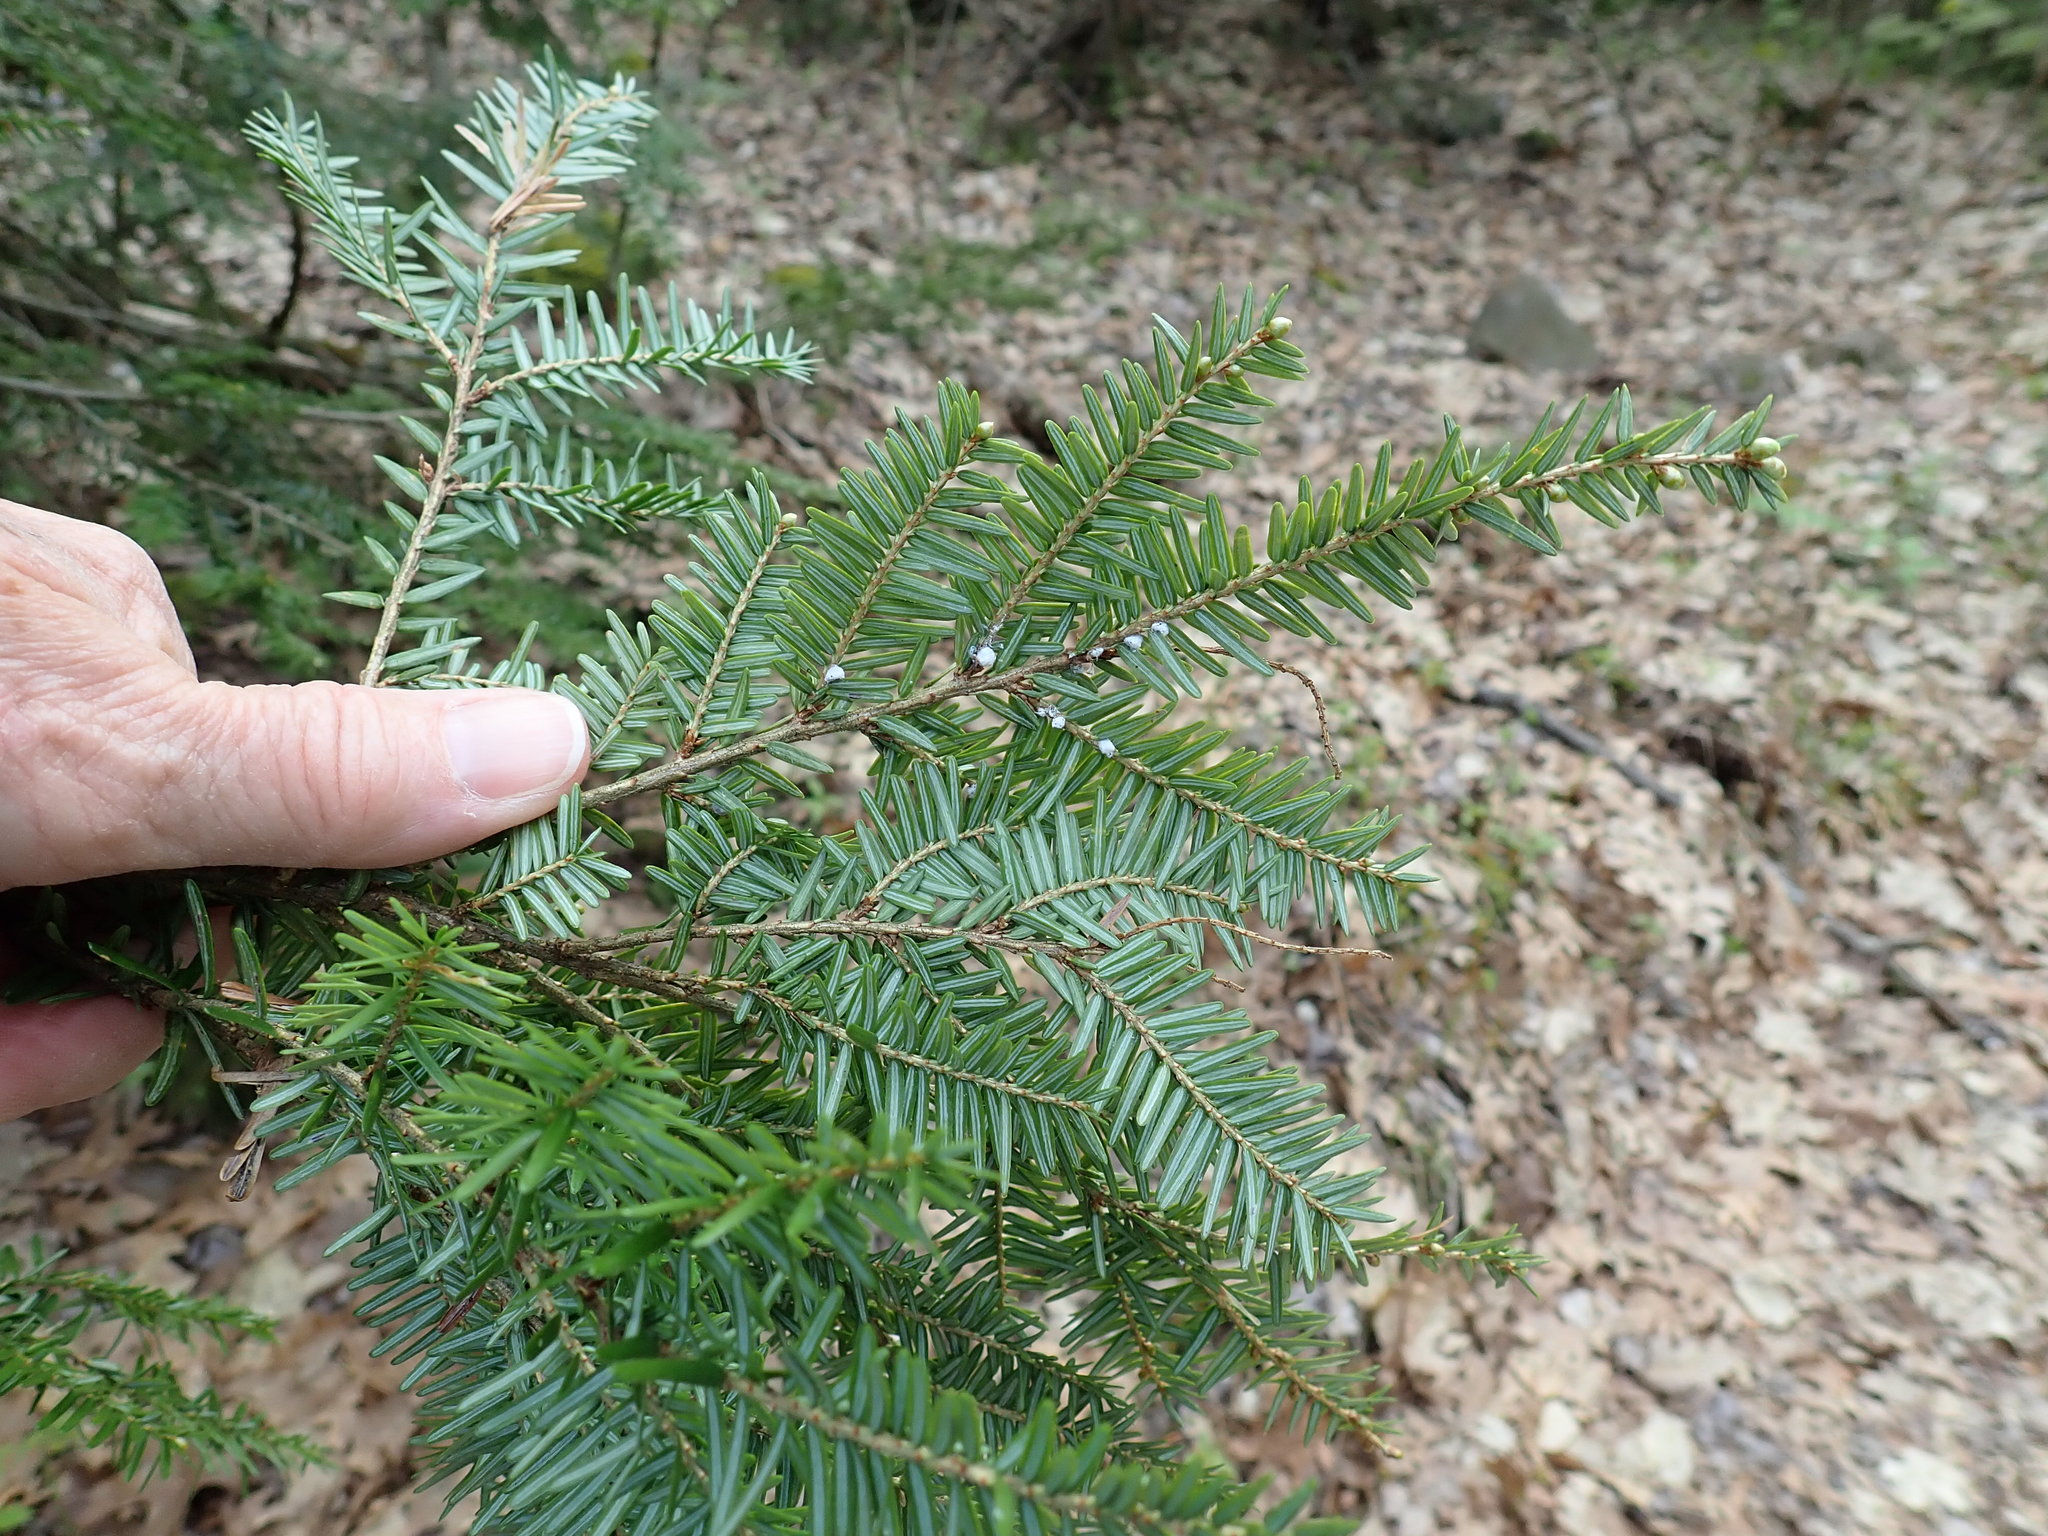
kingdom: Animalia
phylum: Arthropoda
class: Insecta
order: Hemiptera
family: Adelgidae
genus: Adelges
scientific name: Adelges tsugae
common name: Hemlock woolly adelgid
